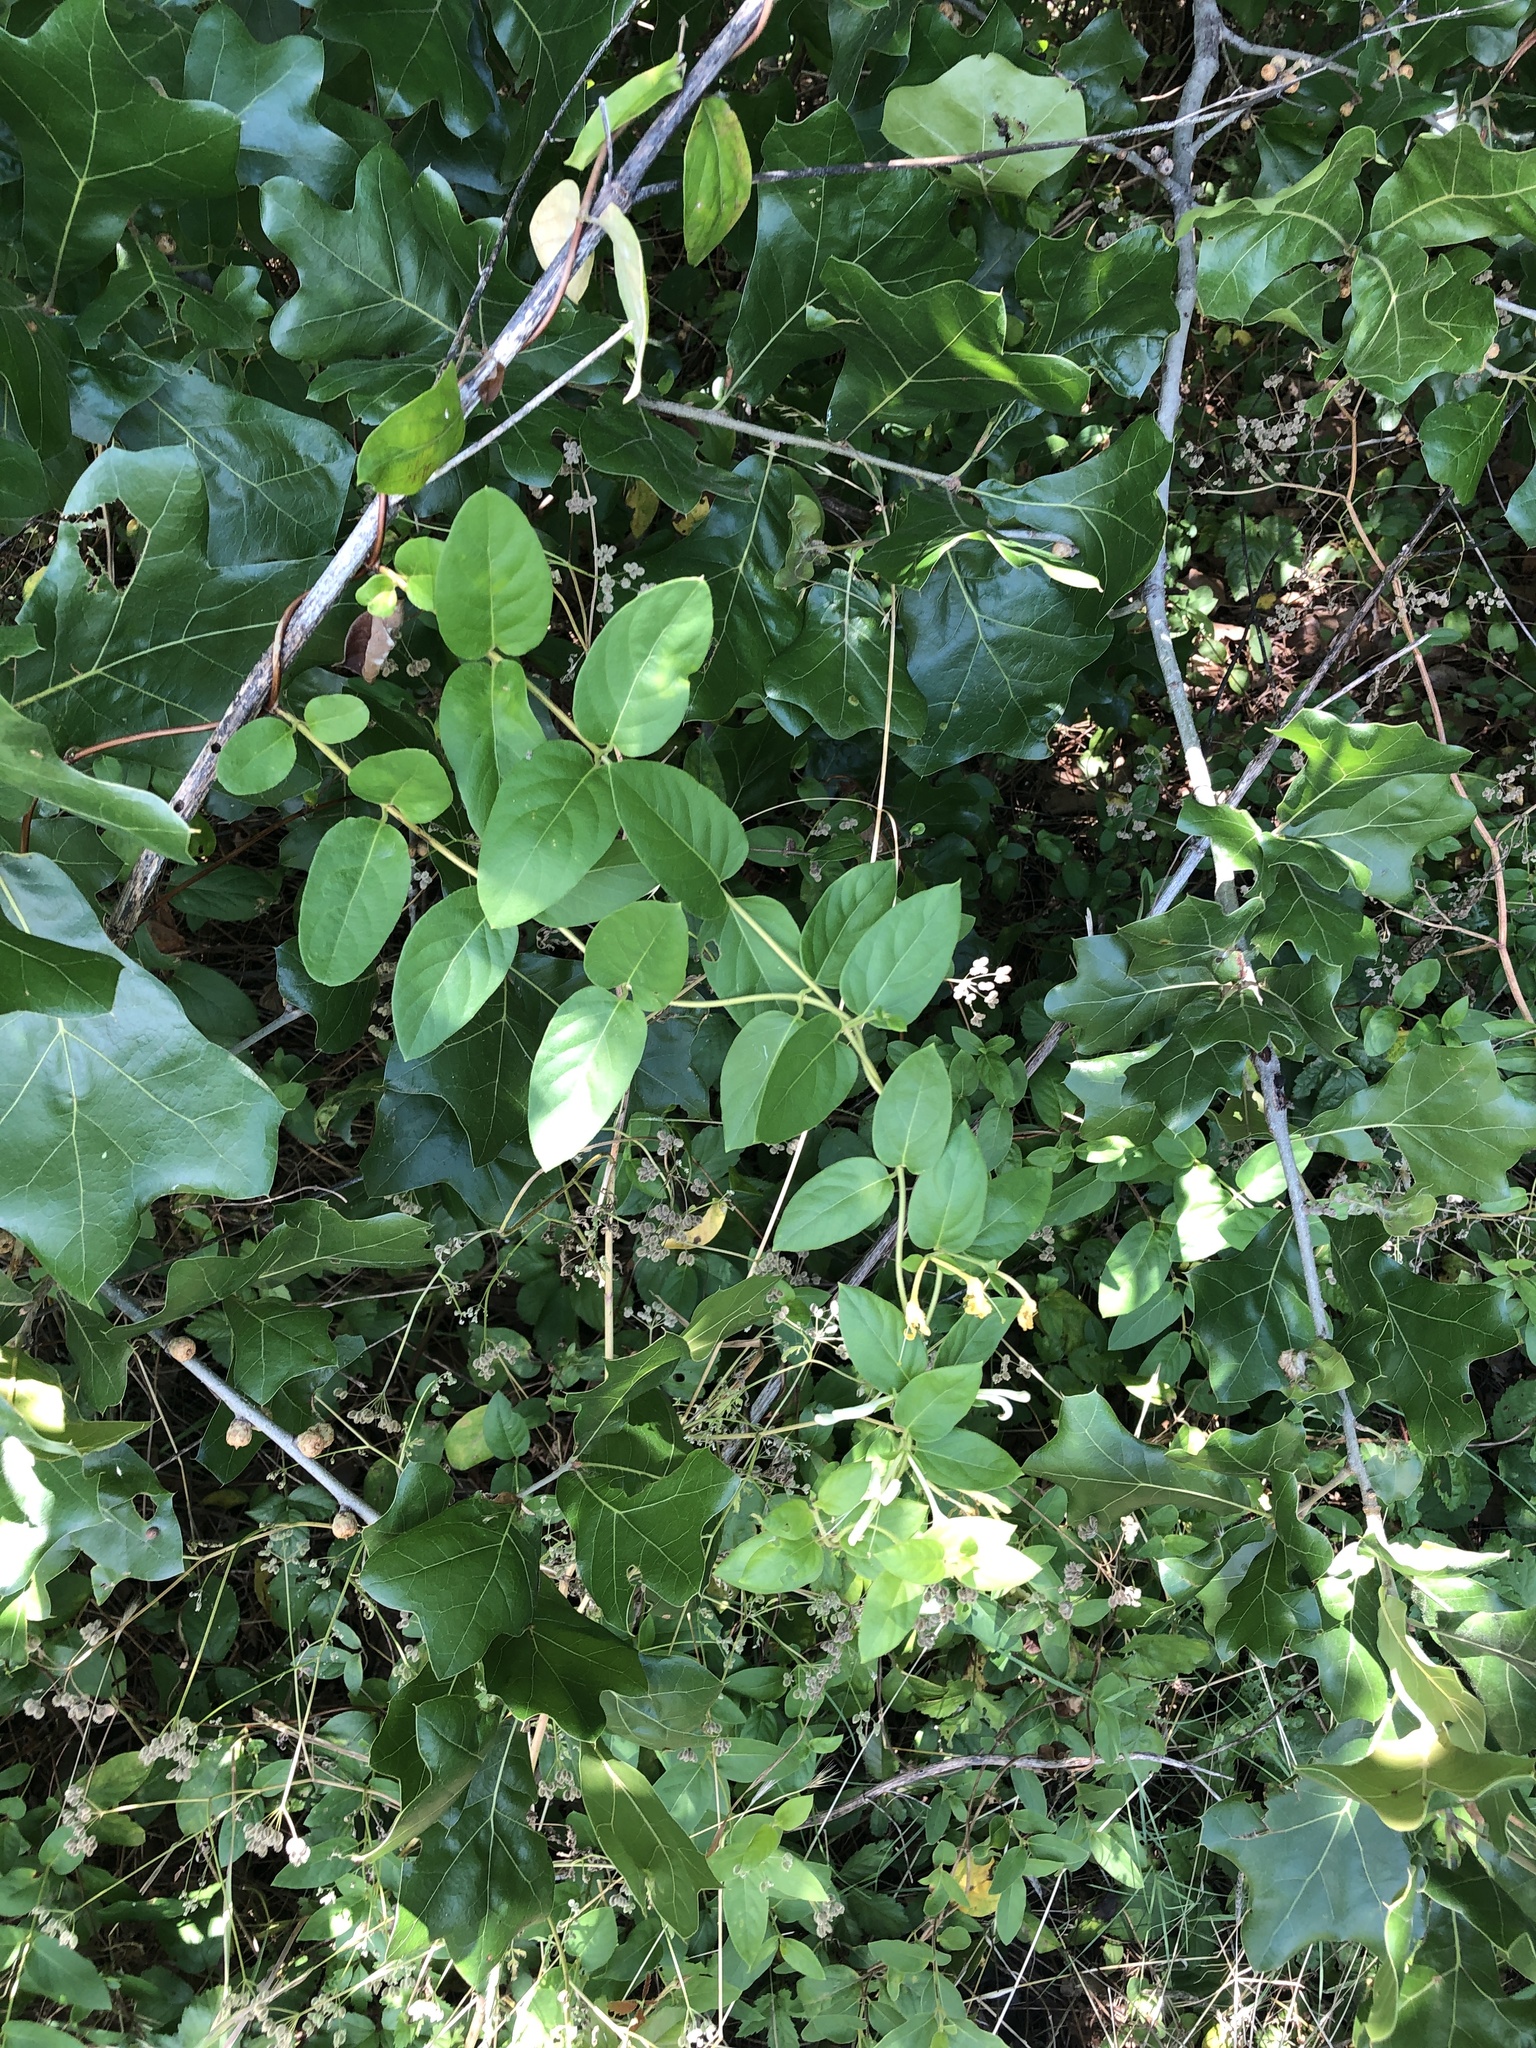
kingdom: Plantae
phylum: Tracheophyta
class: Magnoliopsida
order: Dipsacales
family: Caprifoliaceae
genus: Lonicera
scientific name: Lonicera japonica
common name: Japanese honeysuckle
